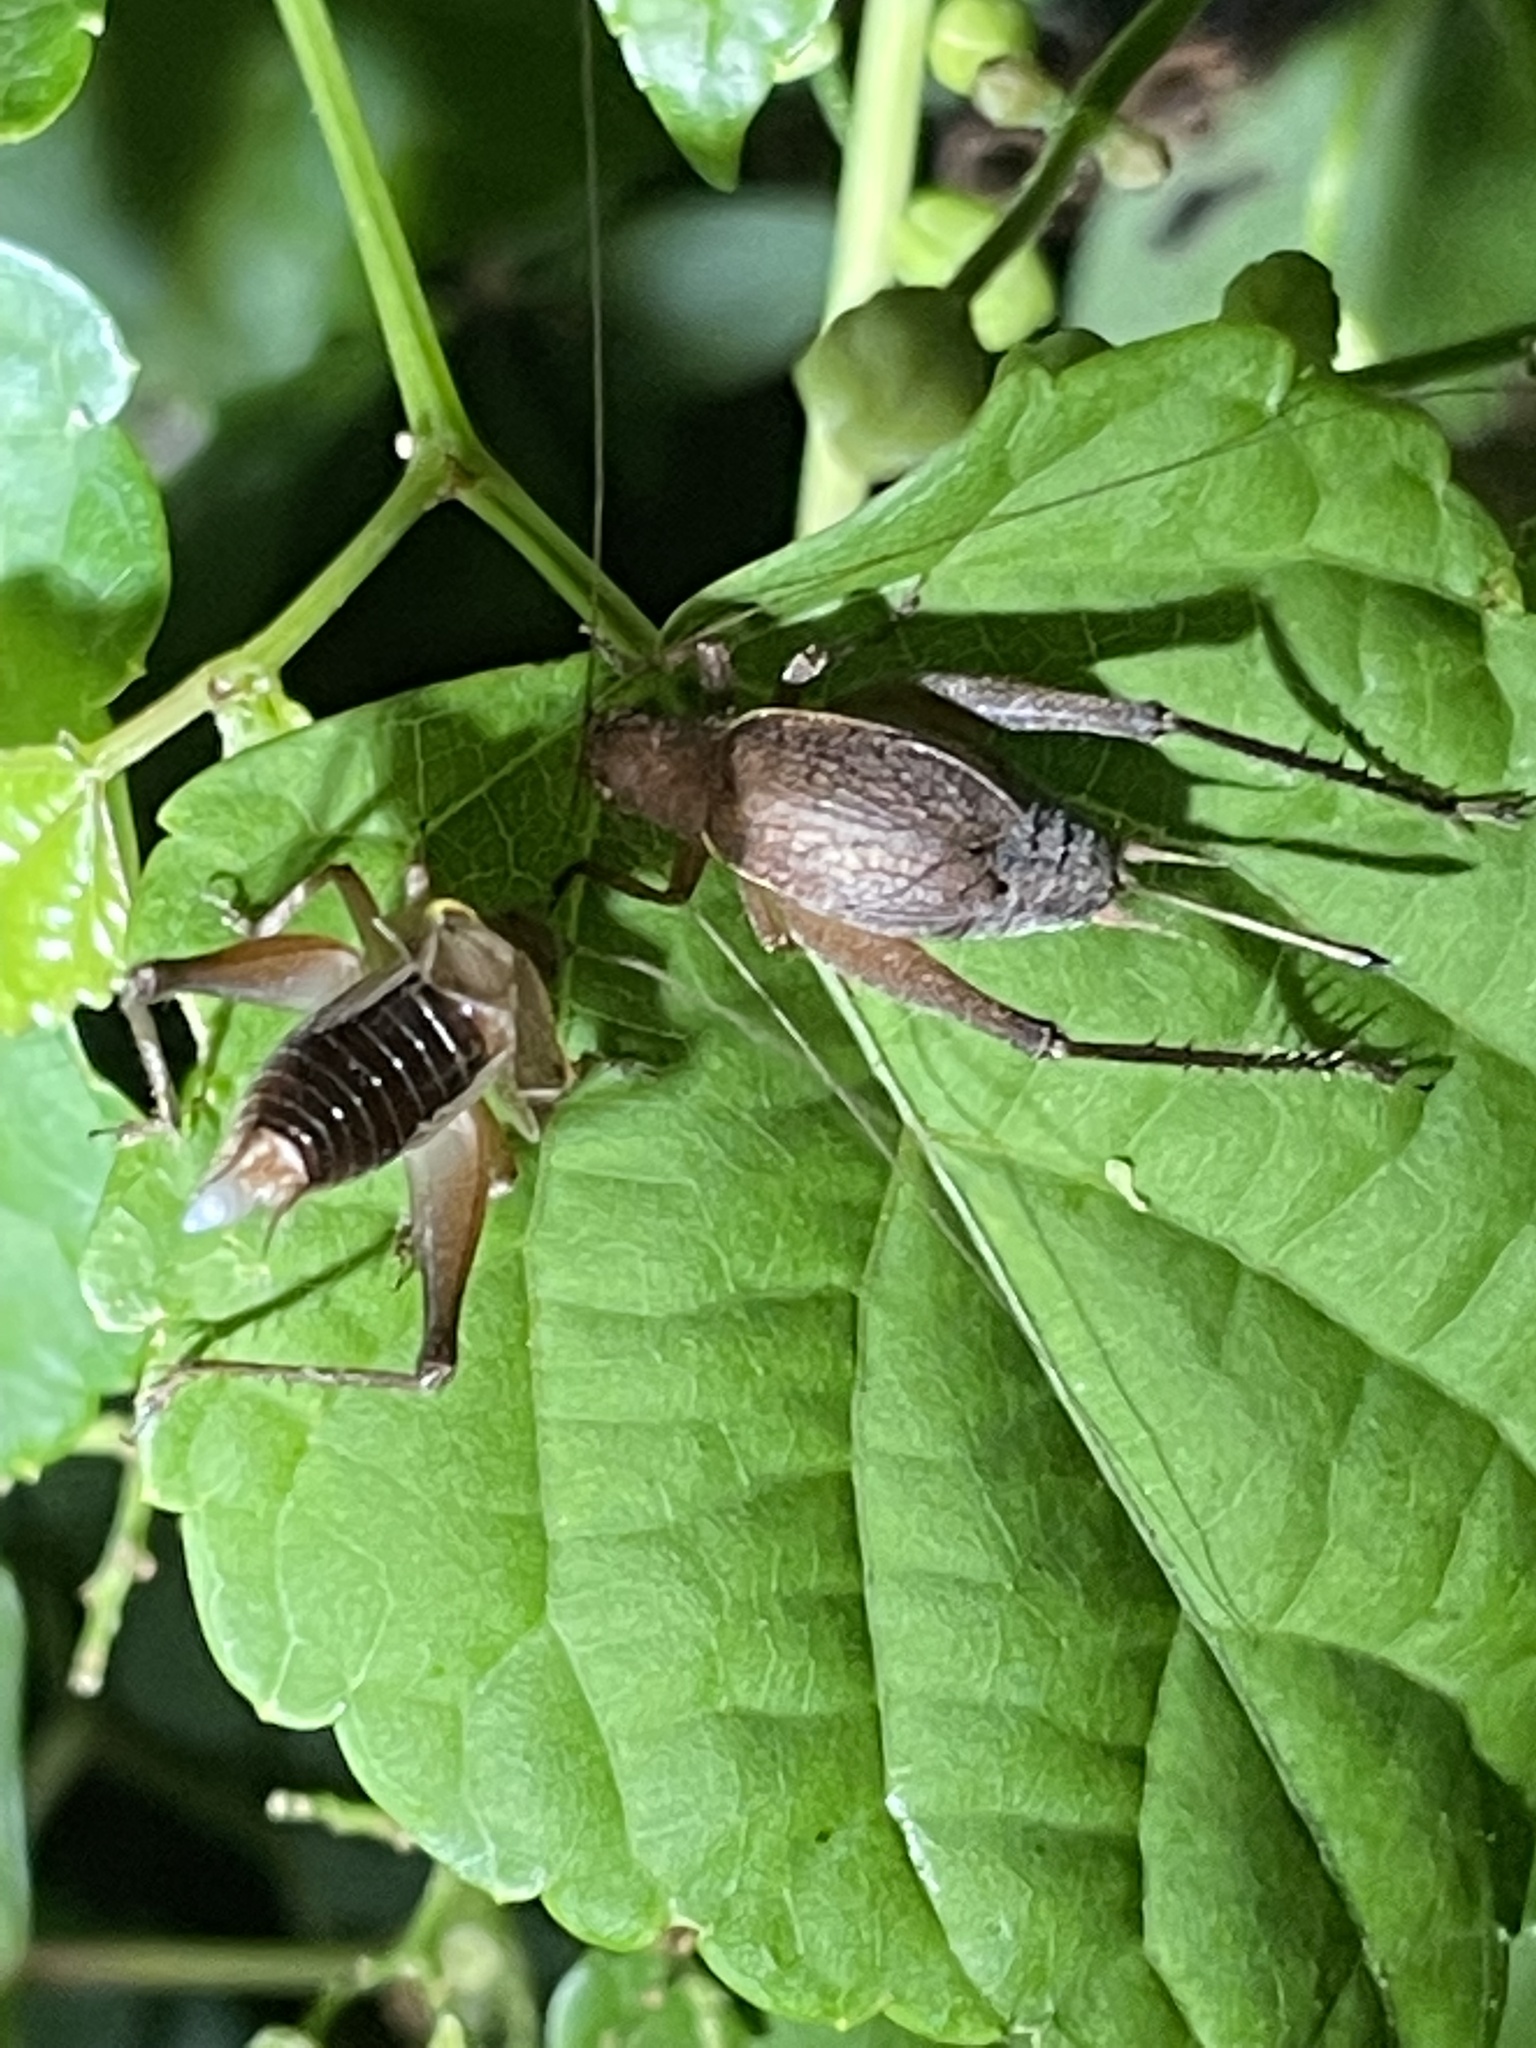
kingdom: Animalia
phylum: Arthropoda
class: Insecta
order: Orthoptera
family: Gryllidae
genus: Hapithus
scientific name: Hapithus agitator
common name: Restless bush cricket
